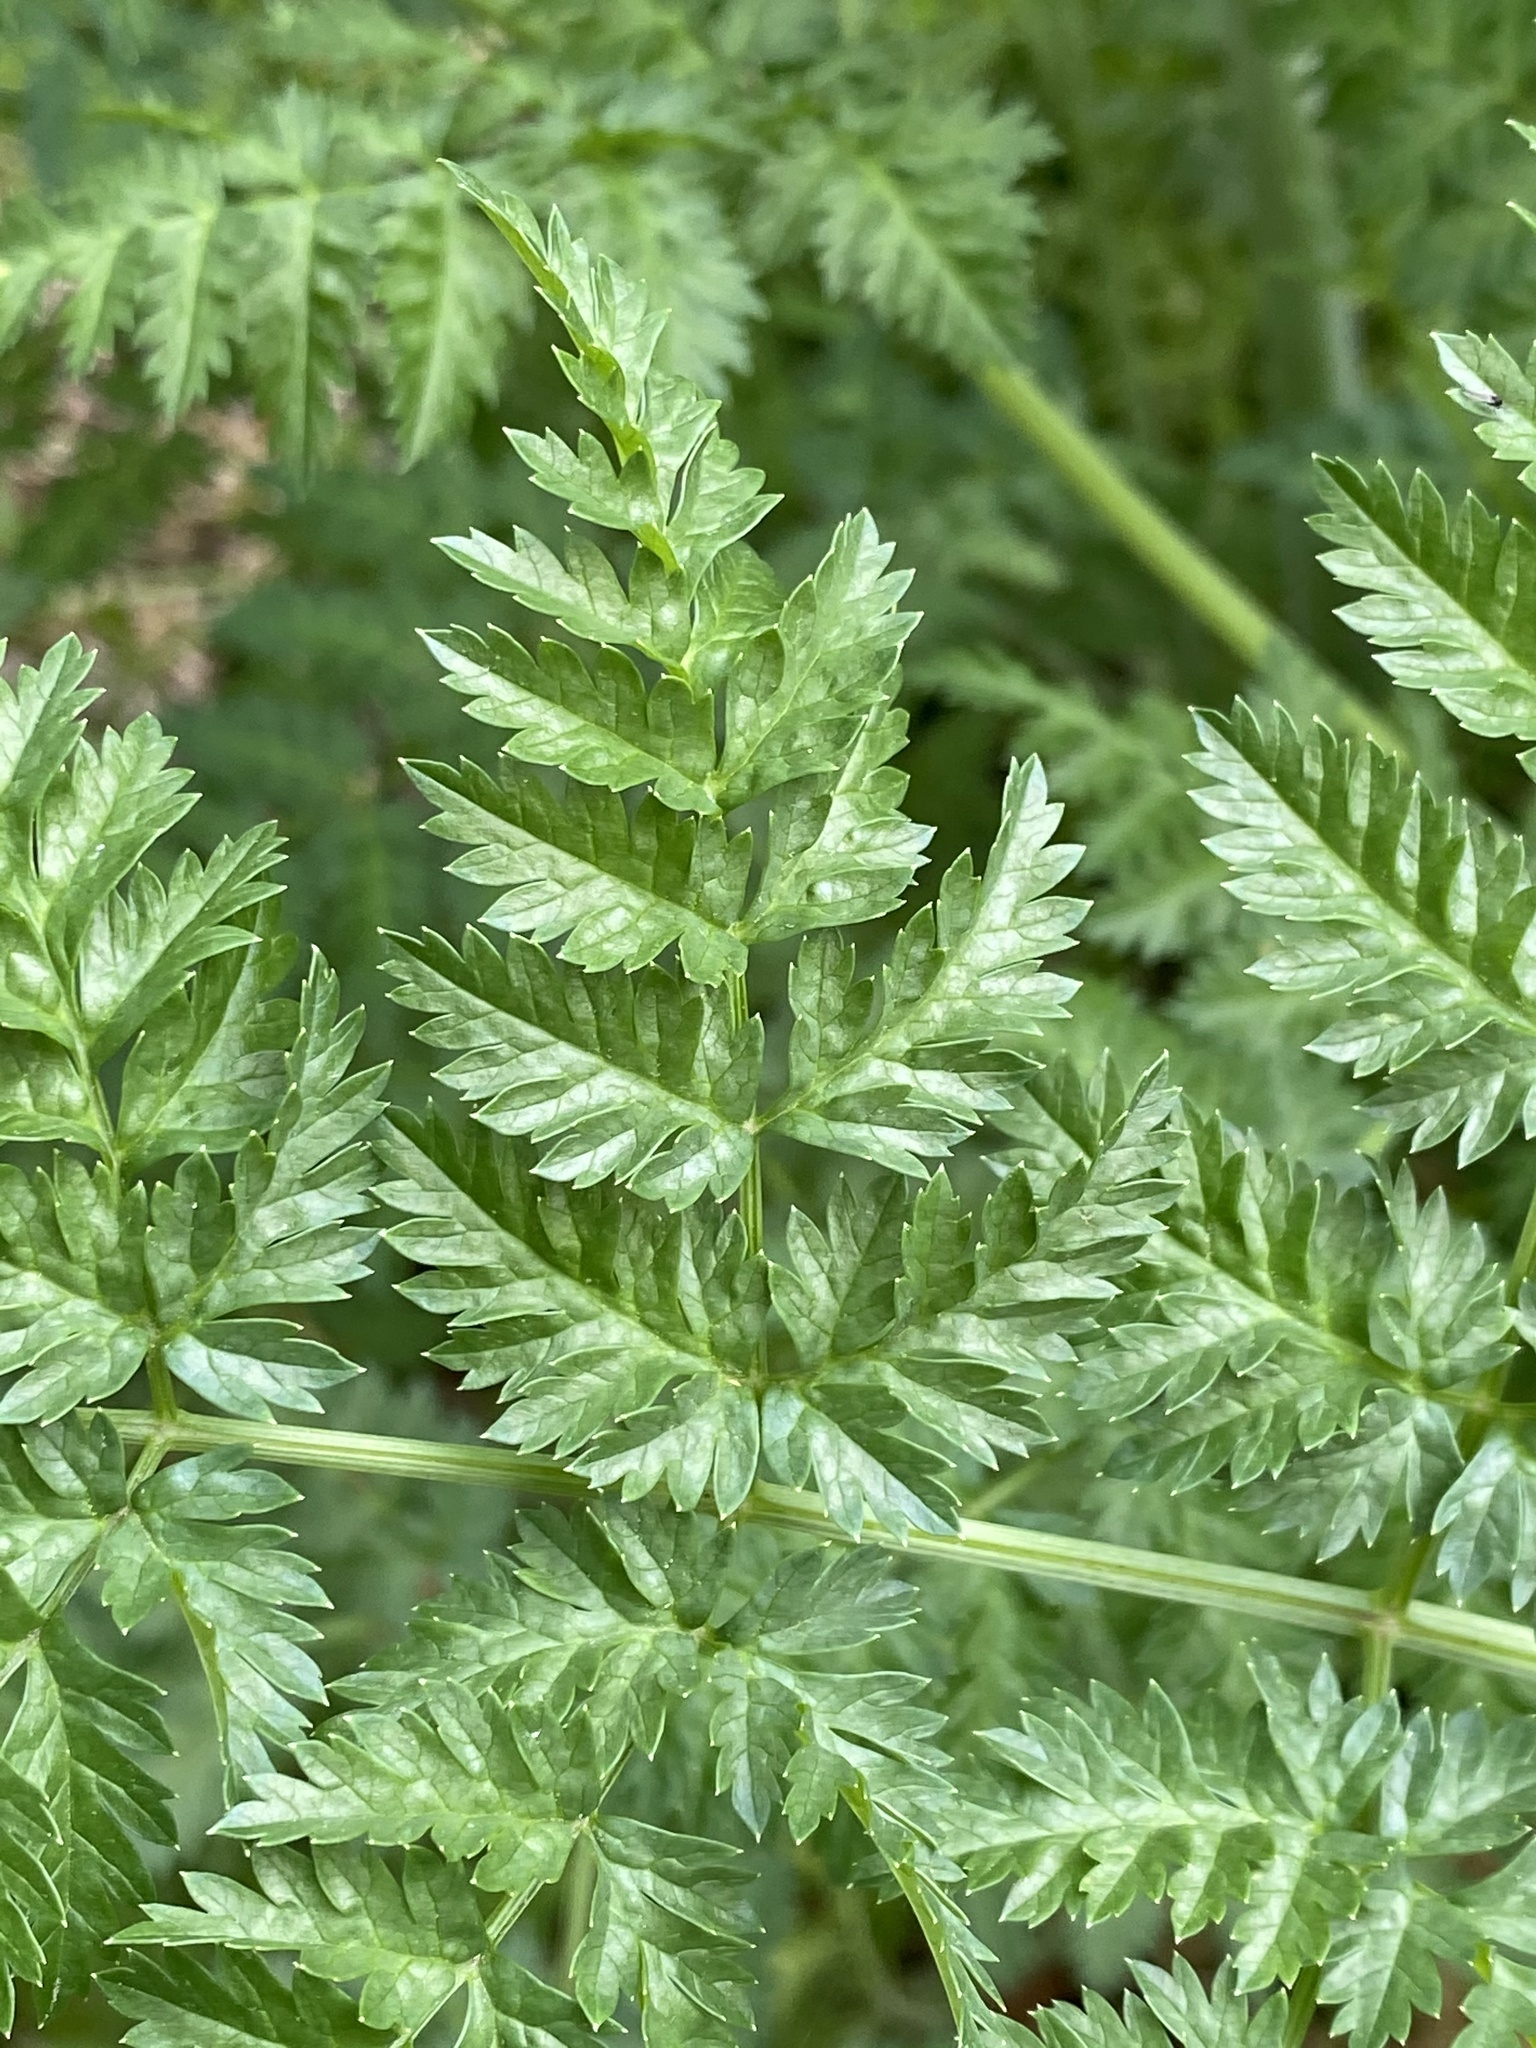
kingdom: Plantae
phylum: Tracheophyta
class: Magnoliopsida
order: Apiales
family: Apiaceae
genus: Conium
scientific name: Conium maculatum
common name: Hemlock
